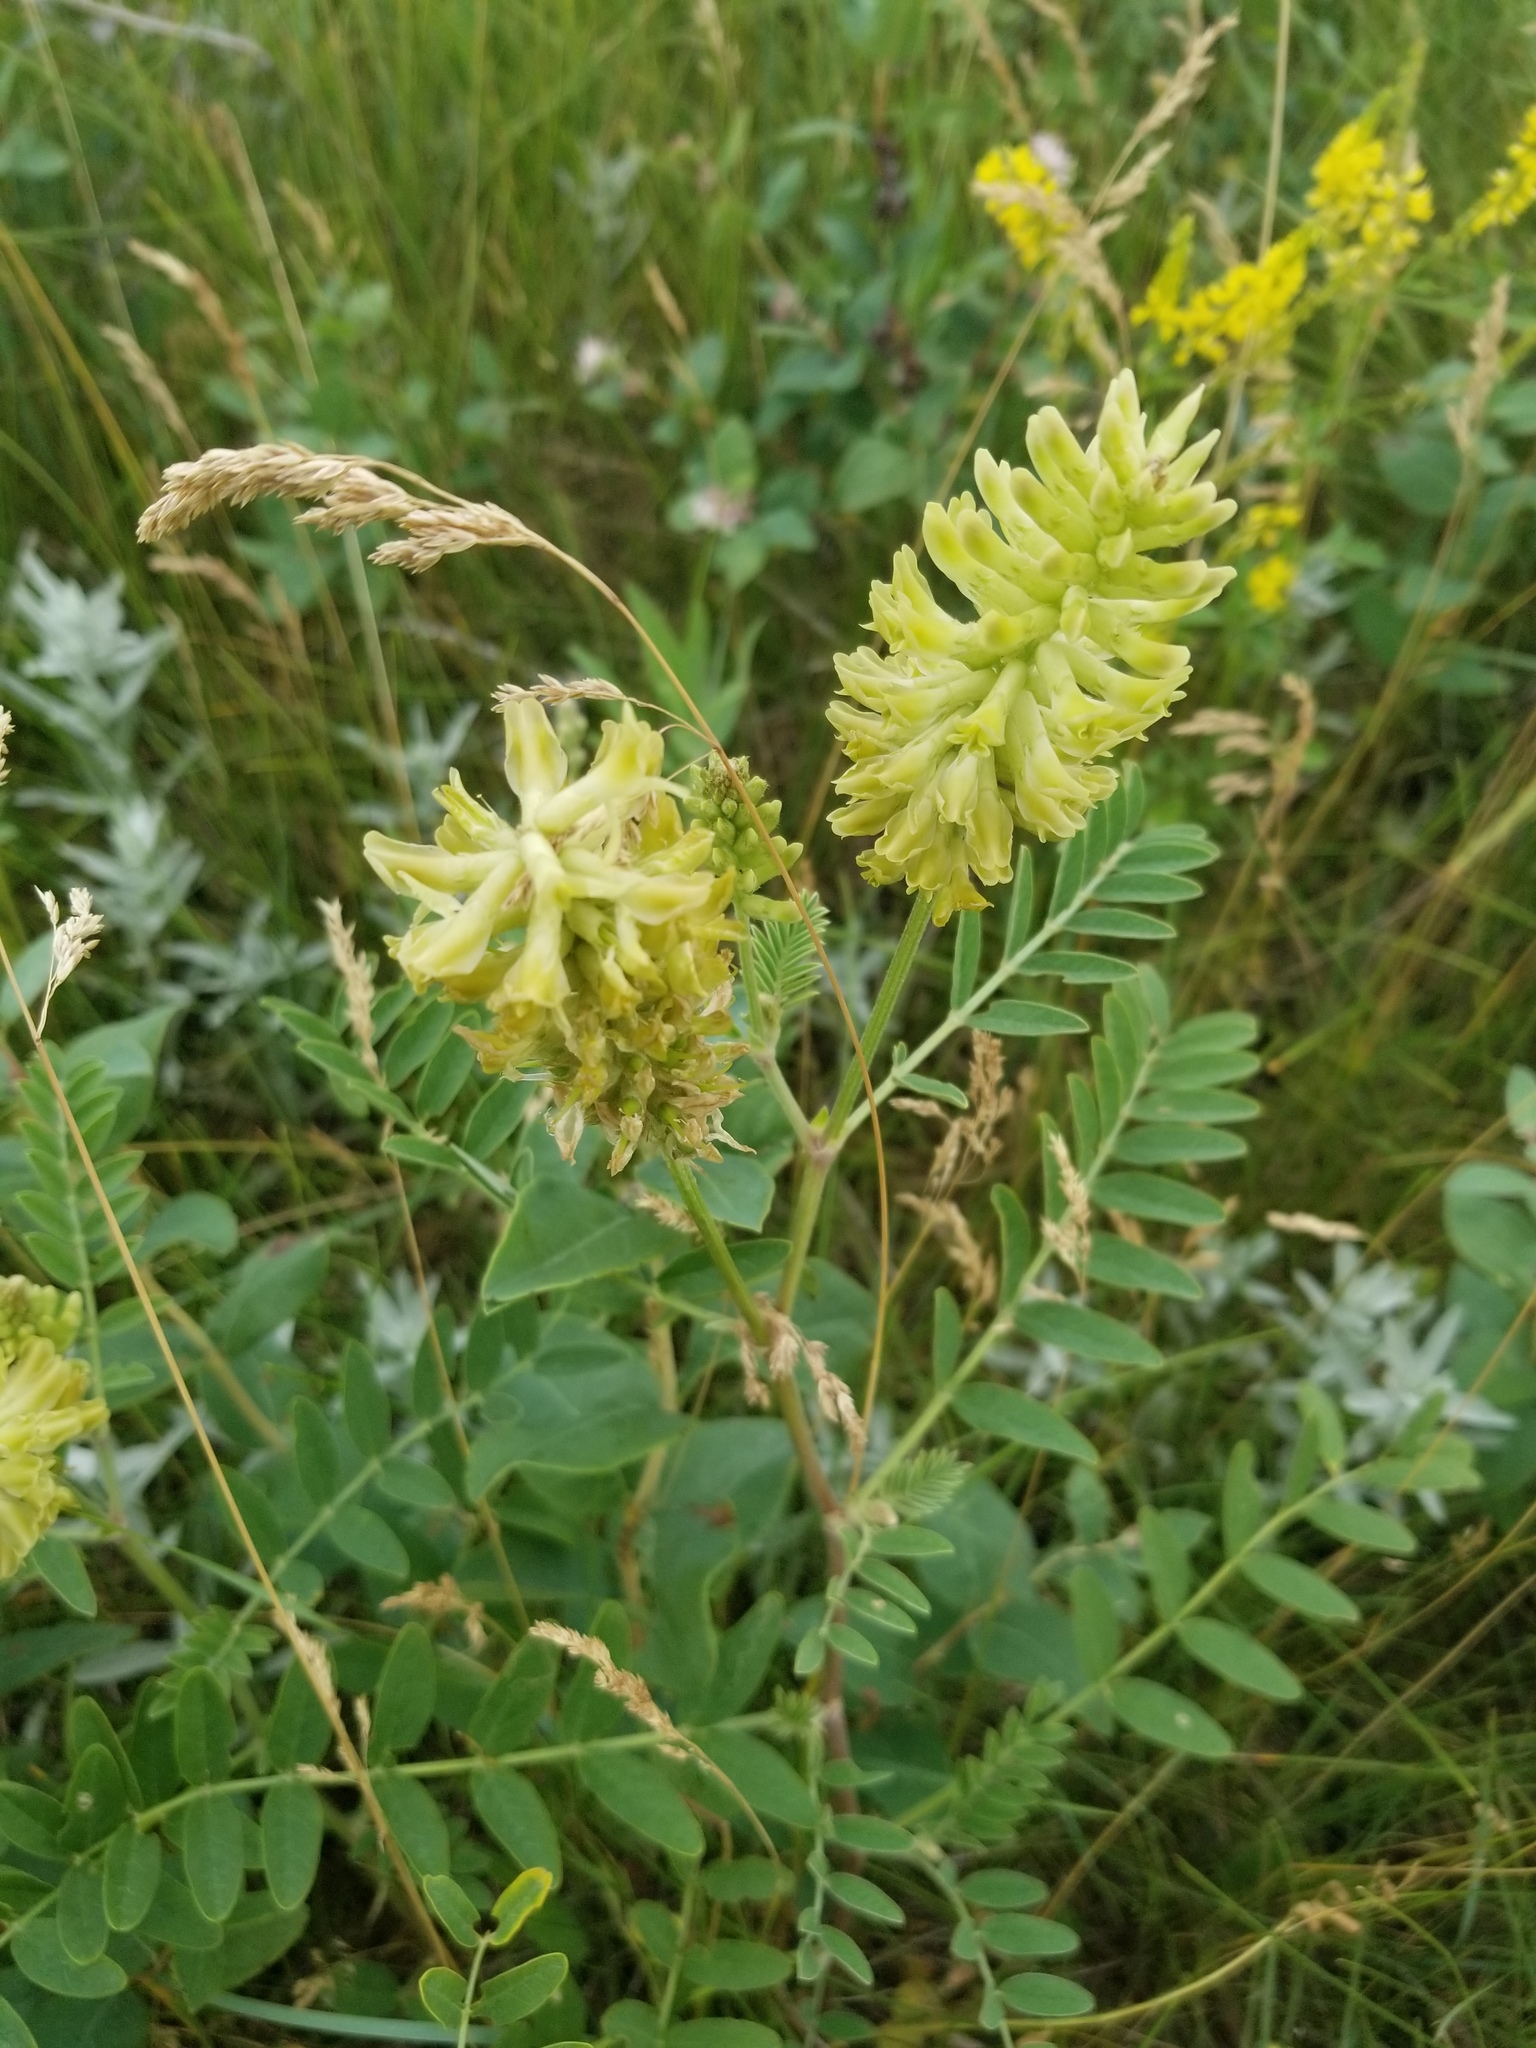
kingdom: Plantae
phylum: Tracheophyta
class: Magnoliopsida
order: Fabales
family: Fabaceae
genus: Astragalus
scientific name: Astragalus canadensis
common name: Canada milk-vetch
